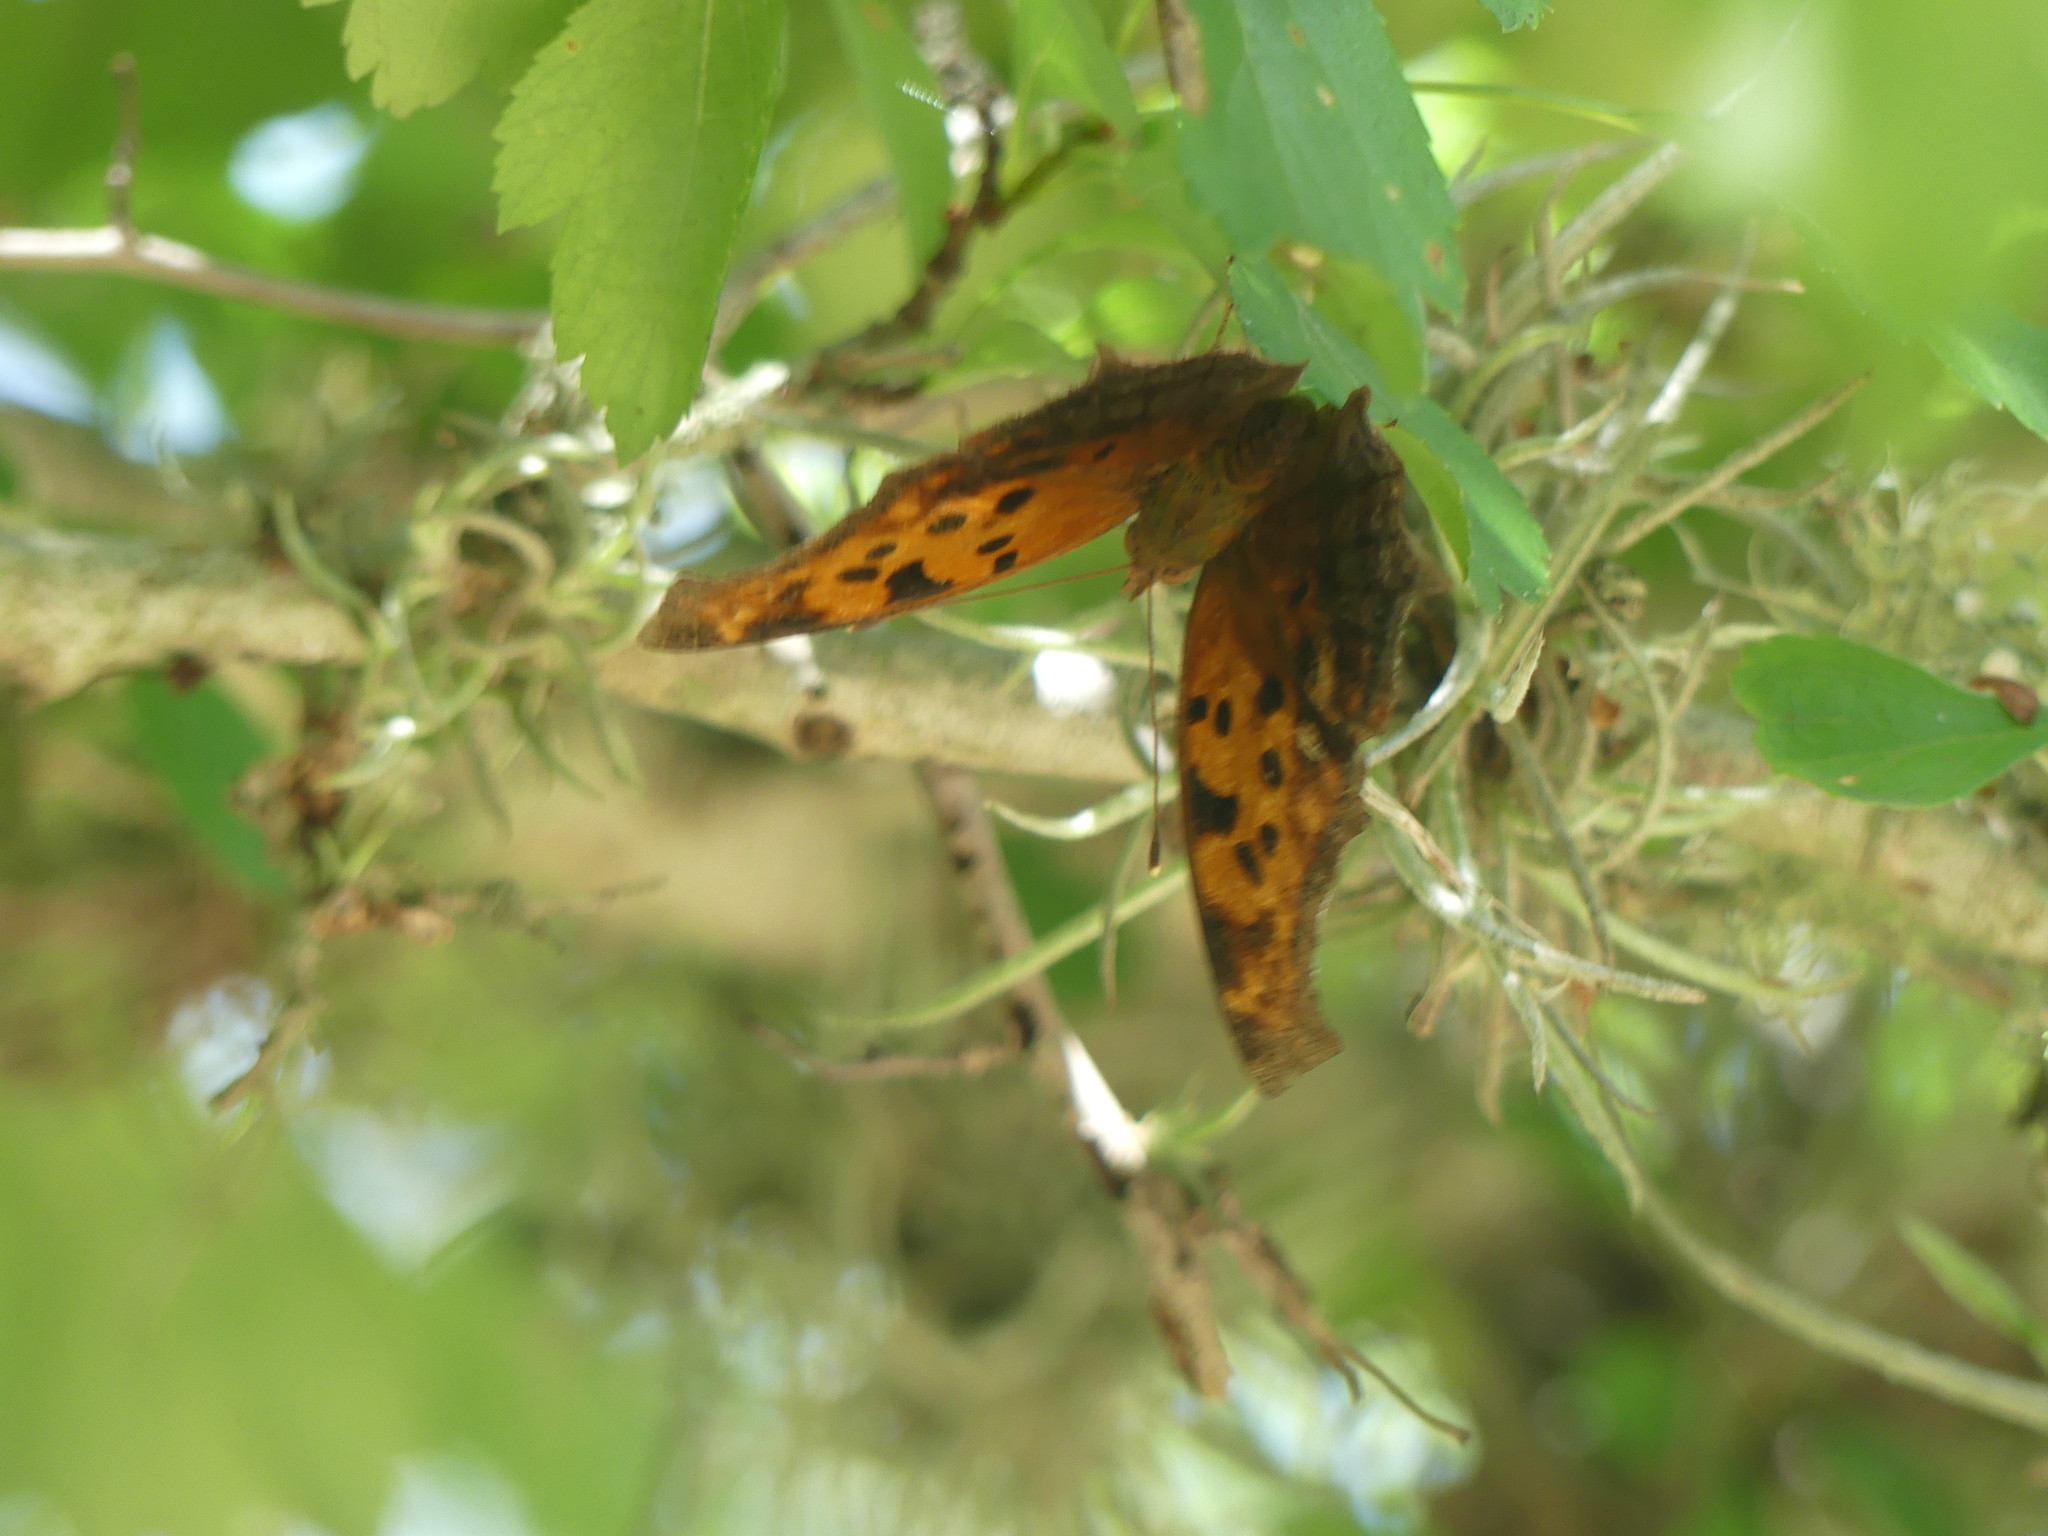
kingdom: Animalia
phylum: Arthropoda
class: Insecta
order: Lepidoptera
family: Nymphalidae
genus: Polygonia
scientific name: Polygonia interrogationis
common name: Question mark
